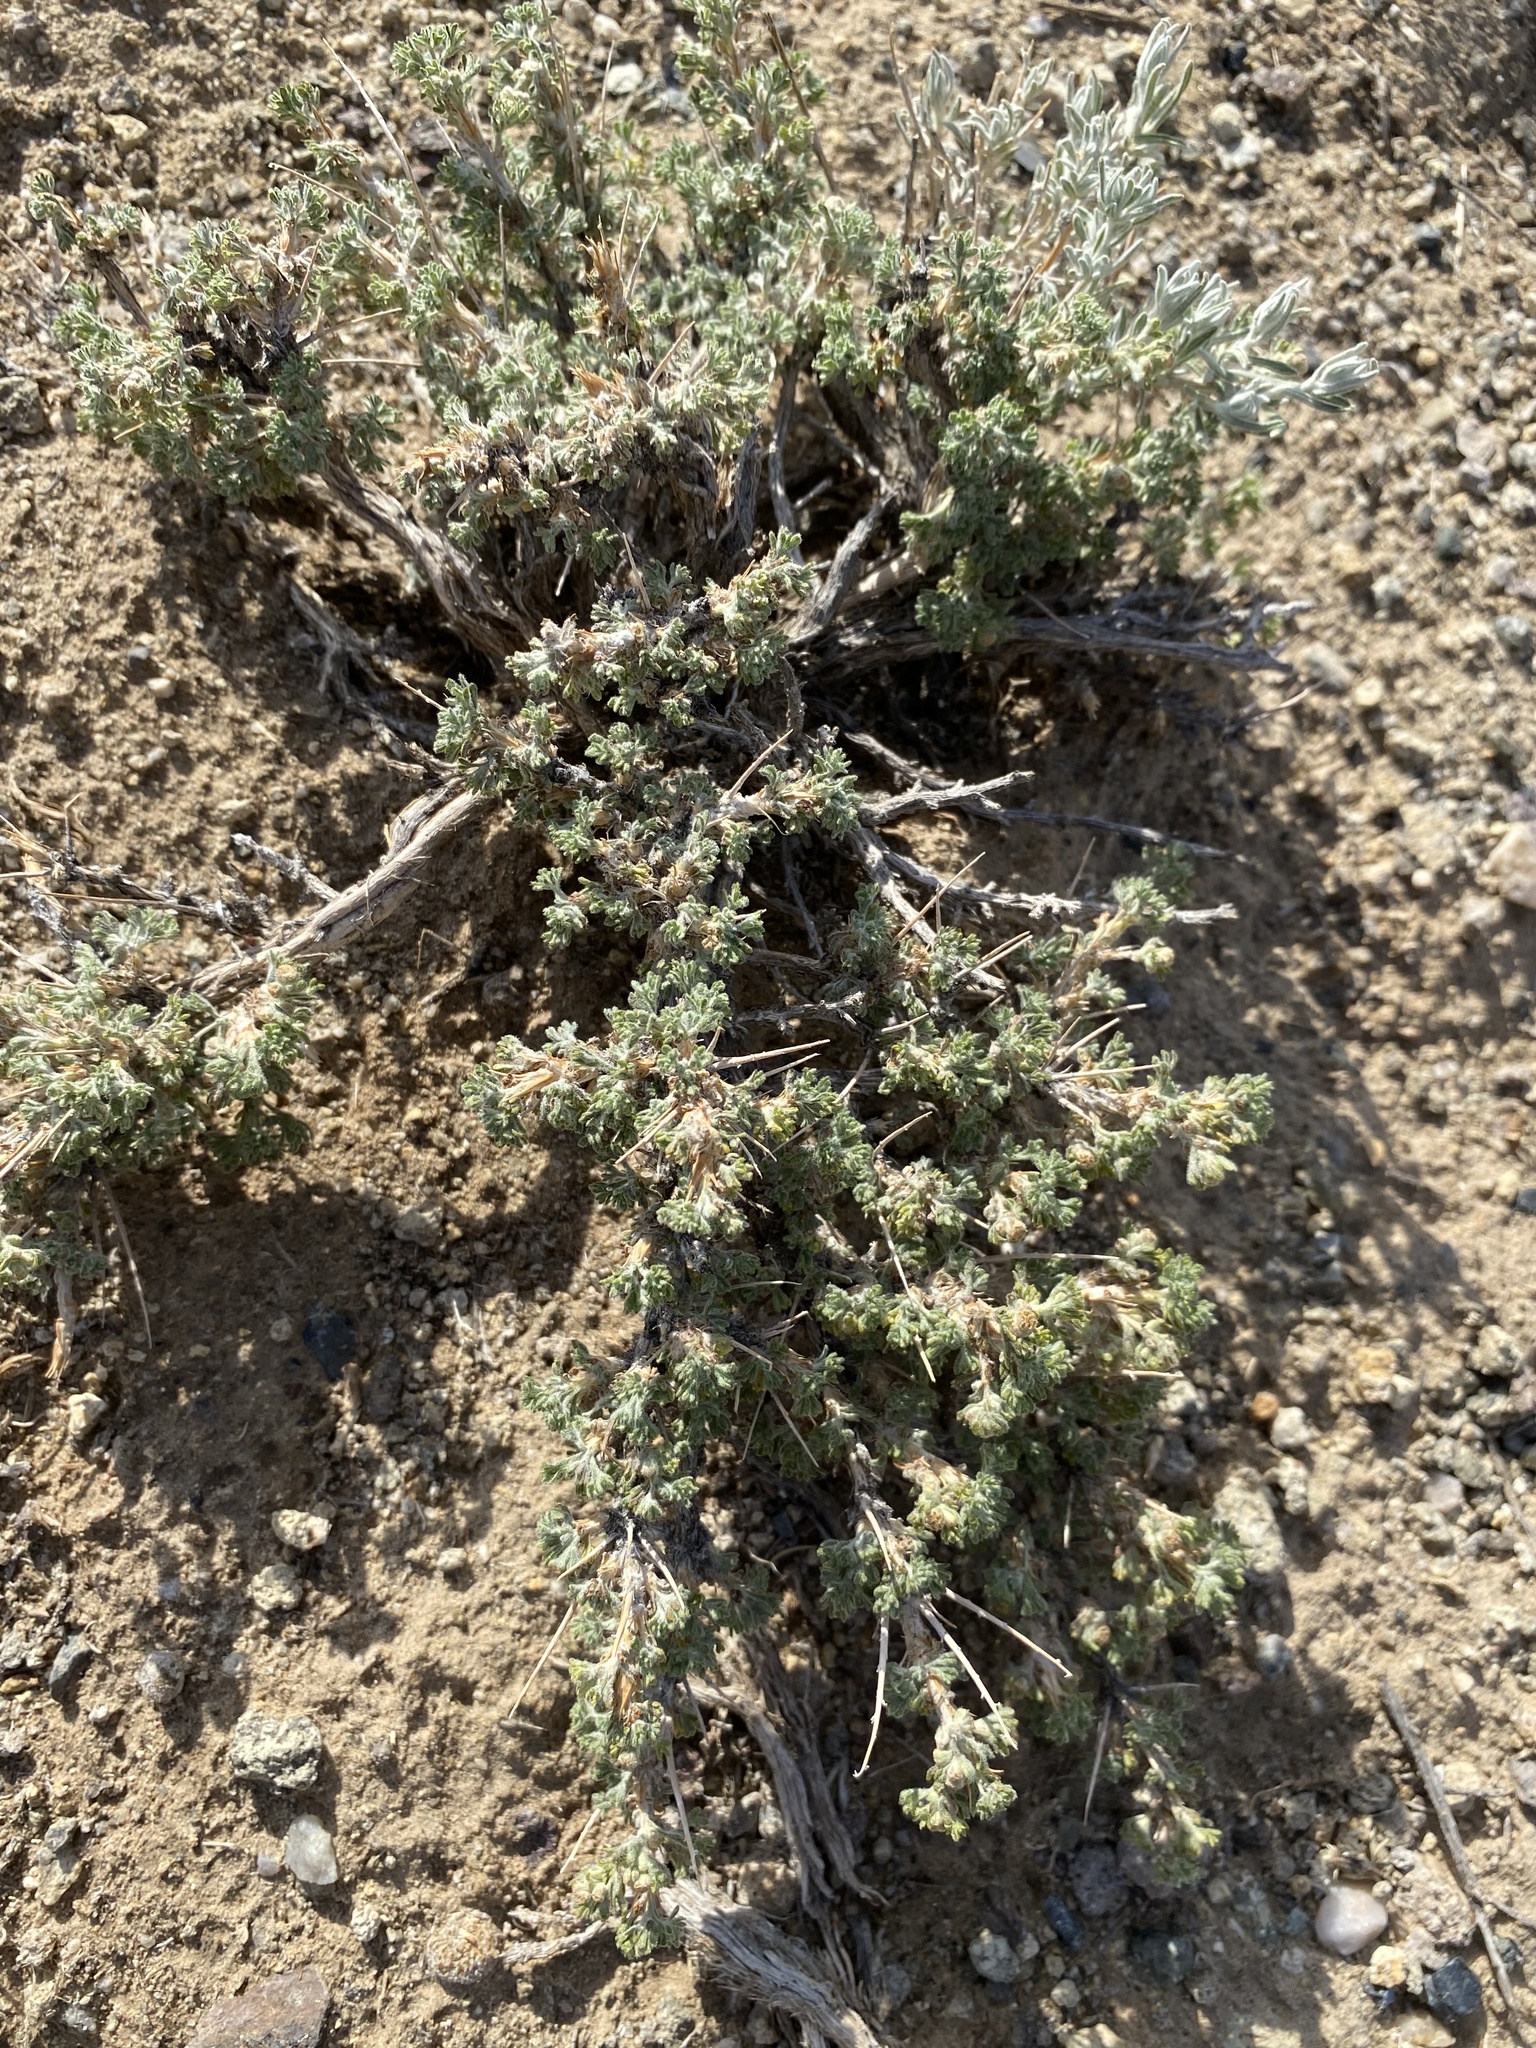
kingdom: Plantae
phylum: Tracheophyta
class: Magnoliopsida
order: Asterales
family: Asteraceae
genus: Artemisia
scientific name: Artemisia spinescens
